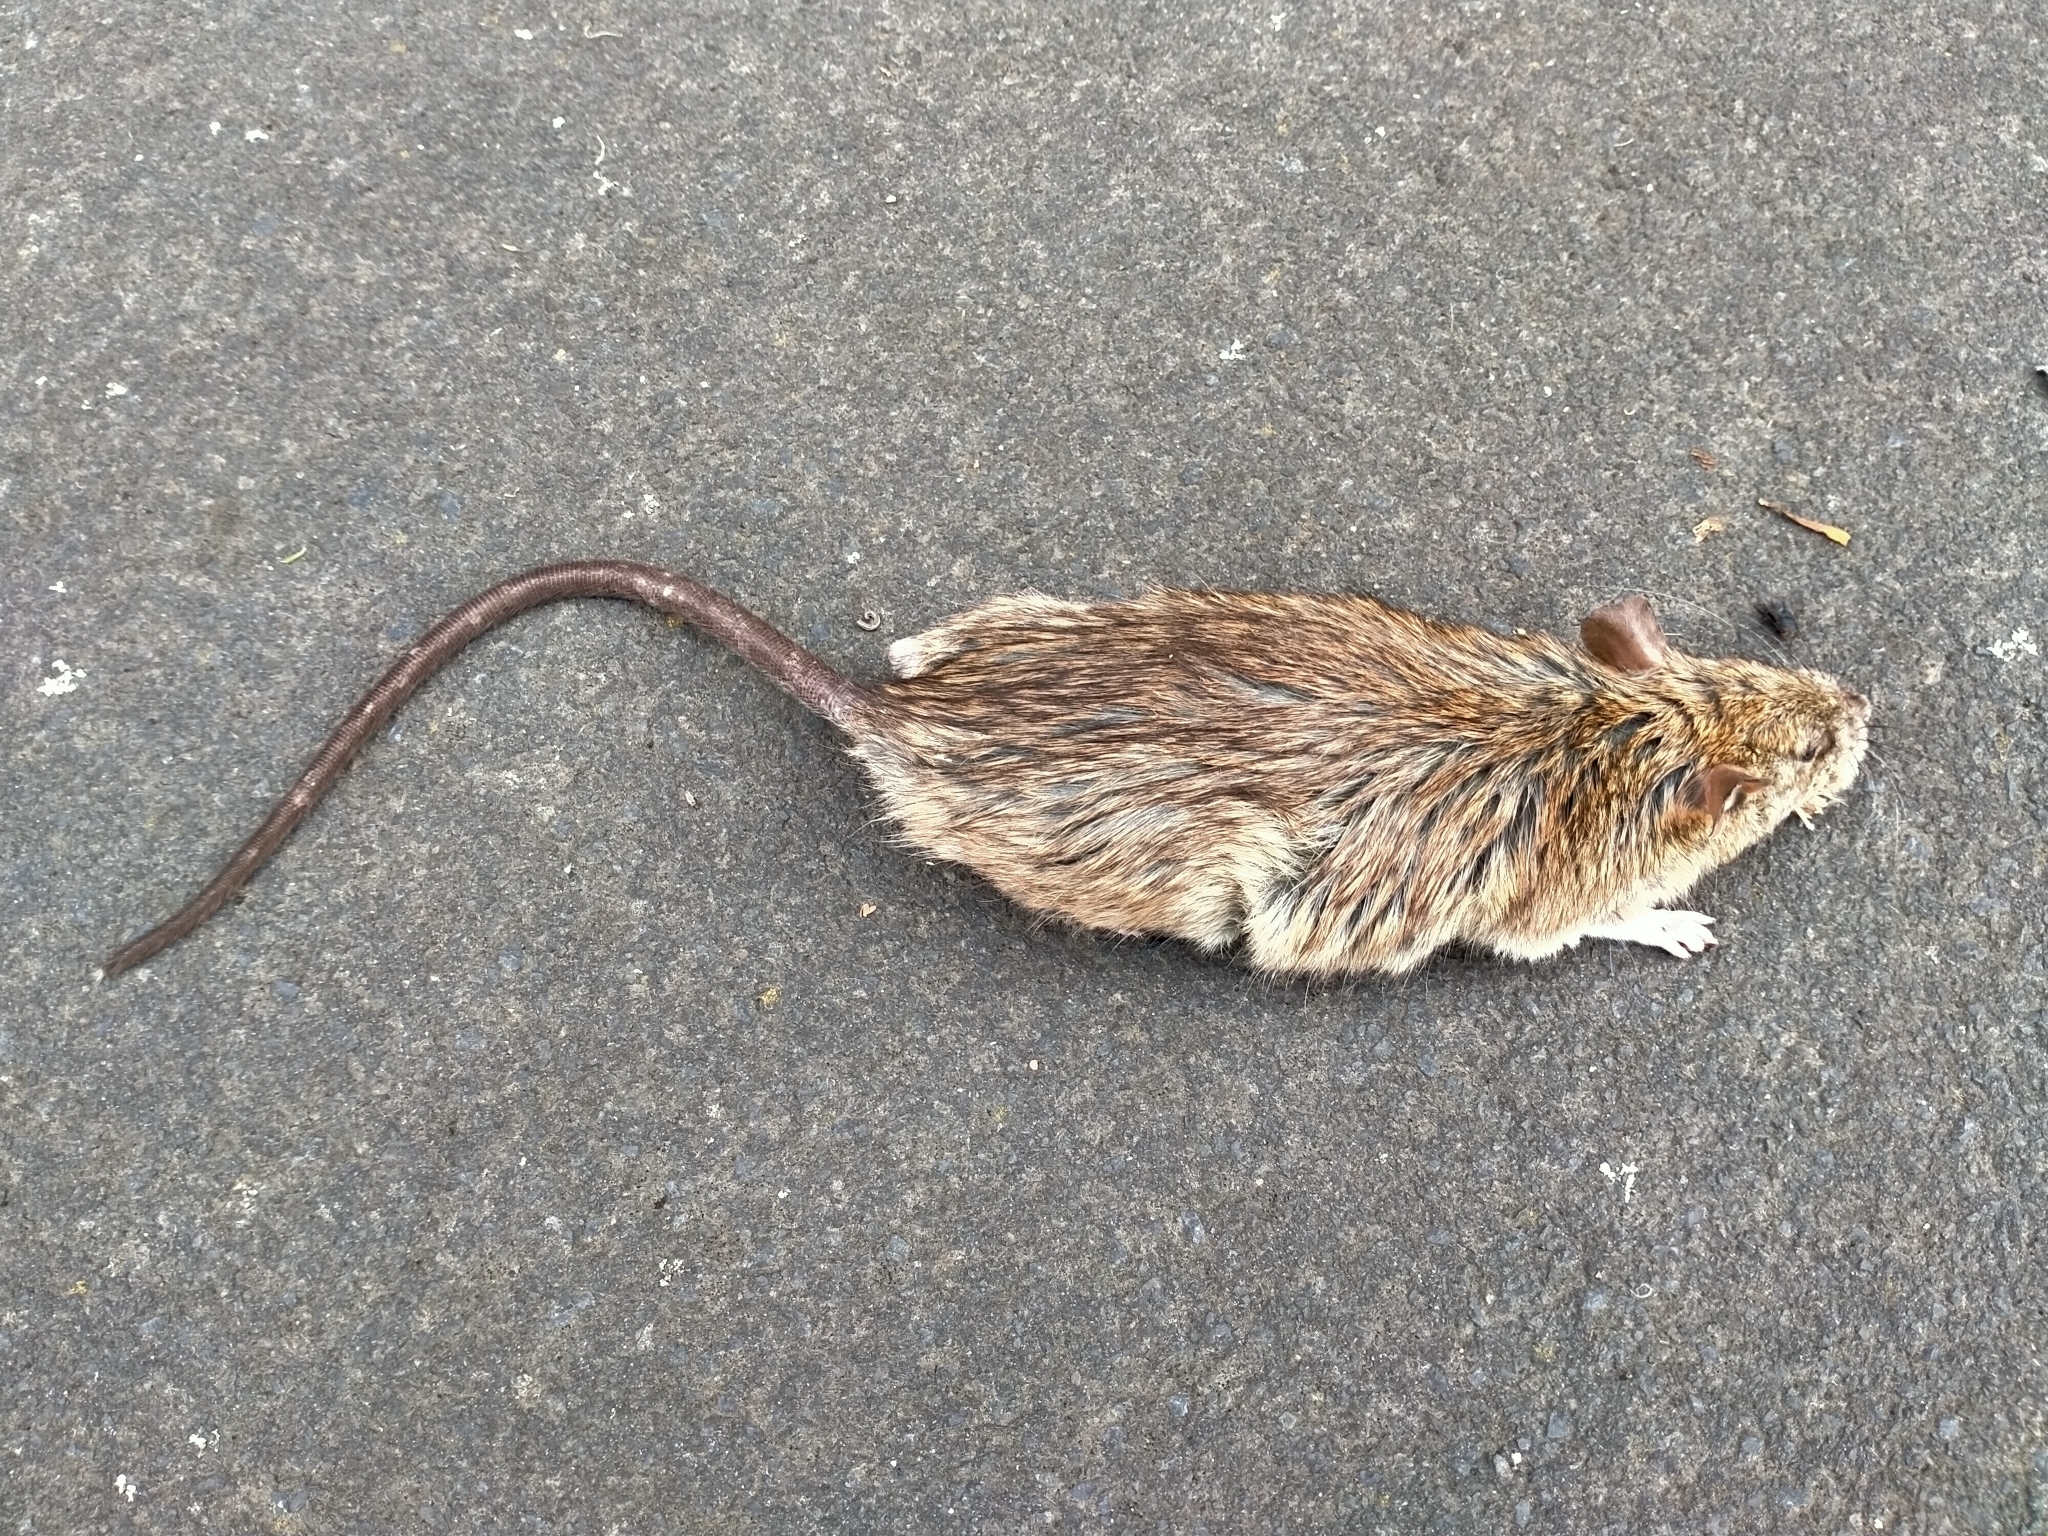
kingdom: Animalia
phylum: Chordata
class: Mammalia
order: Rodentia
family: Muridae
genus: Rattus
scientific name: Rattus norvegicus
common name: Brown rat
